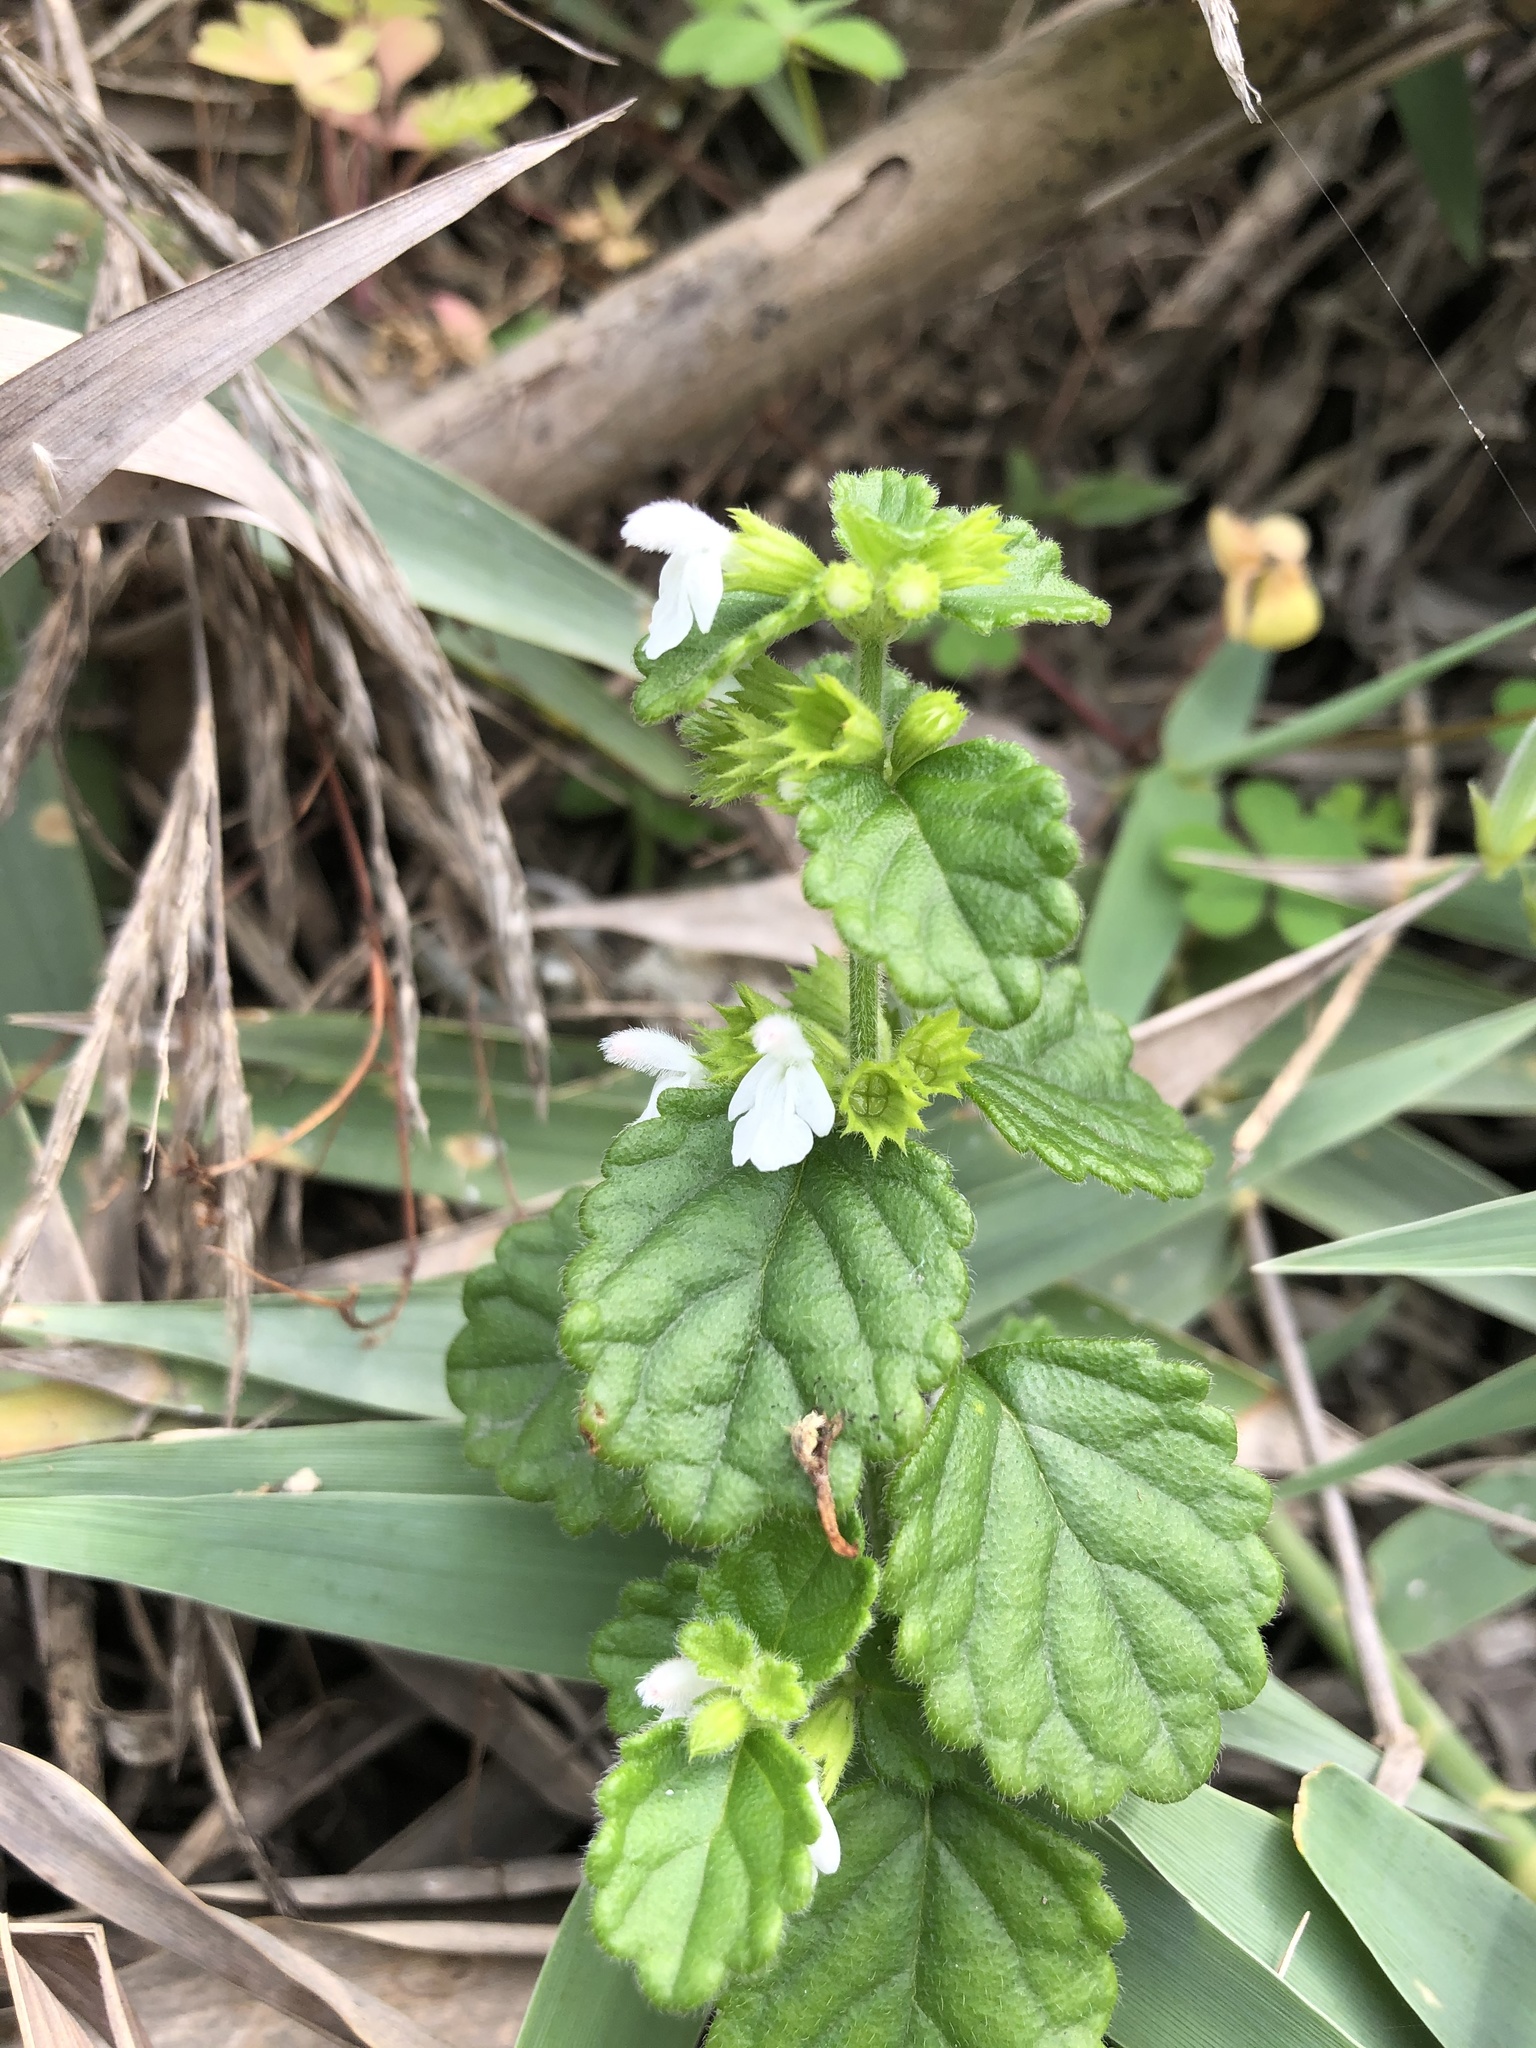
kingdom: Plantae
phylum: Tracheophyta
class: Magnoliopsida
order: Lamiales
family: Lamiaceae
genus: Leucas
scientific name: Leucas chinensis
